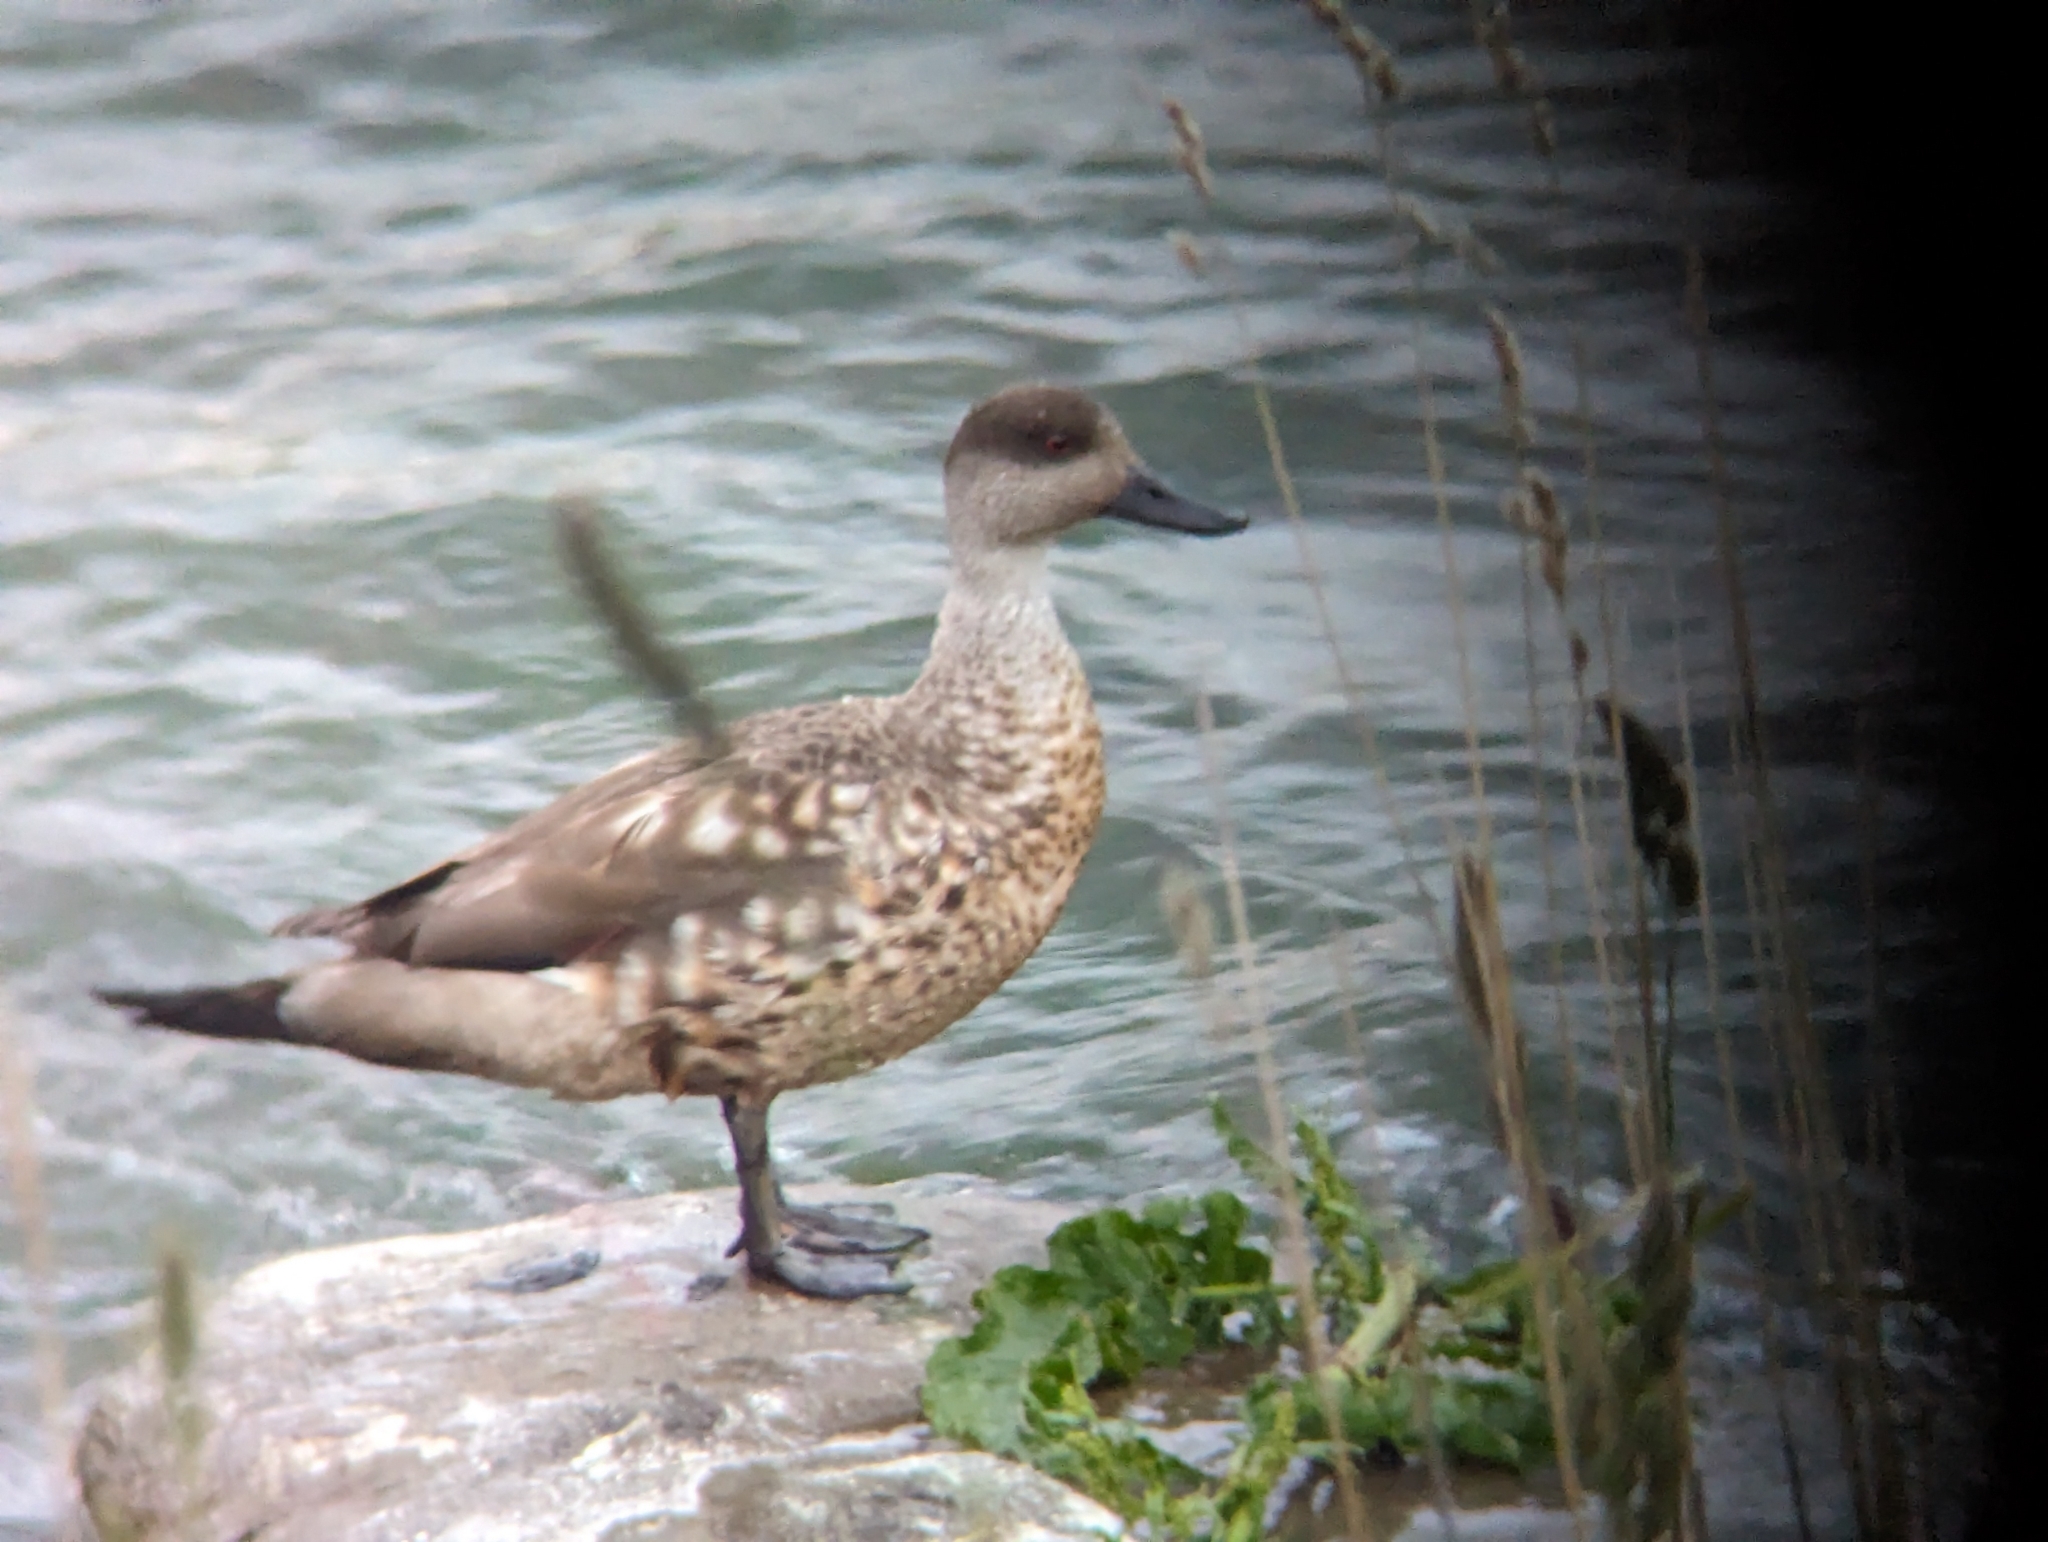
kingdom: Animalia
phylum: Chordata
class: Aves
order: Anseriformes
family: Anatidae
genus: Lophonetta
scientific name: Lophonetta specularioides
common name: Crested duck
